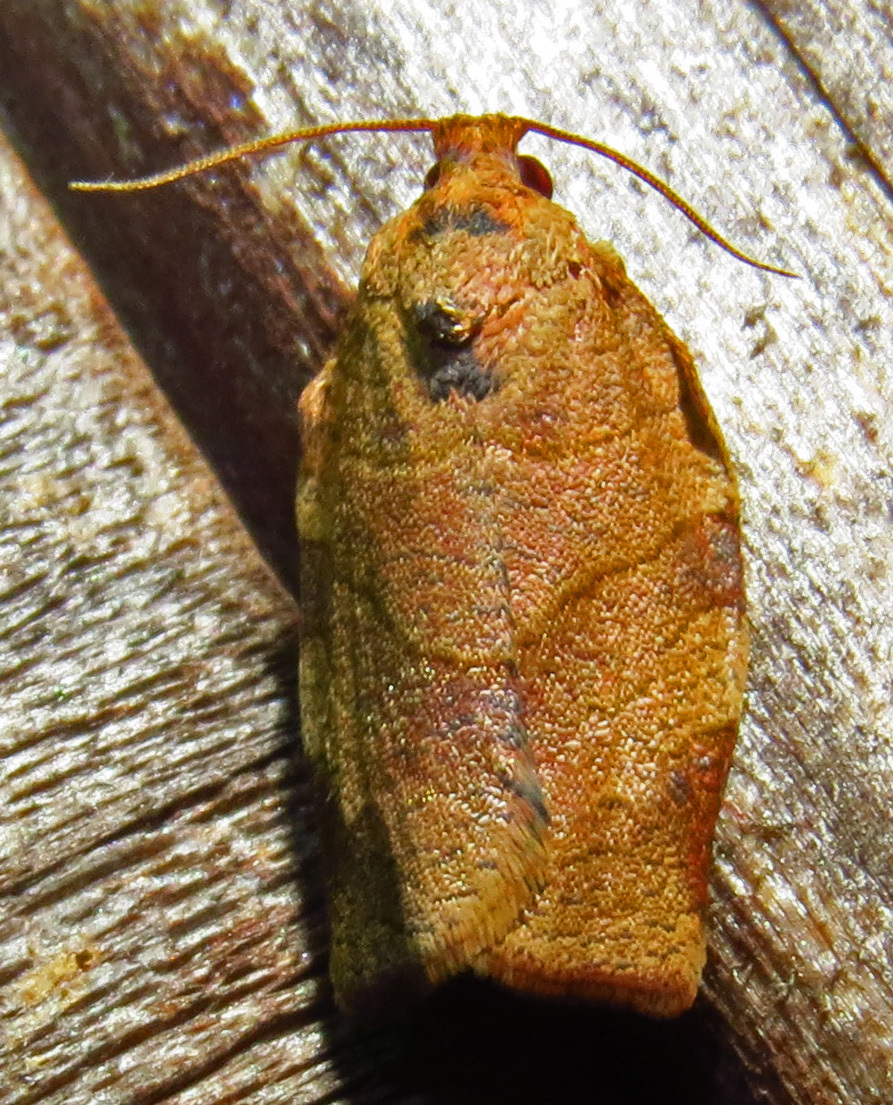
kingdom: Animalia
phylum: Arthropoda
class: Insecta
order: Lepidoptera
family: Tortricidae
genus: Choristoneura
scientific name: Choristoneura rosaceana
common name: Oblique-banded leafroller moth
